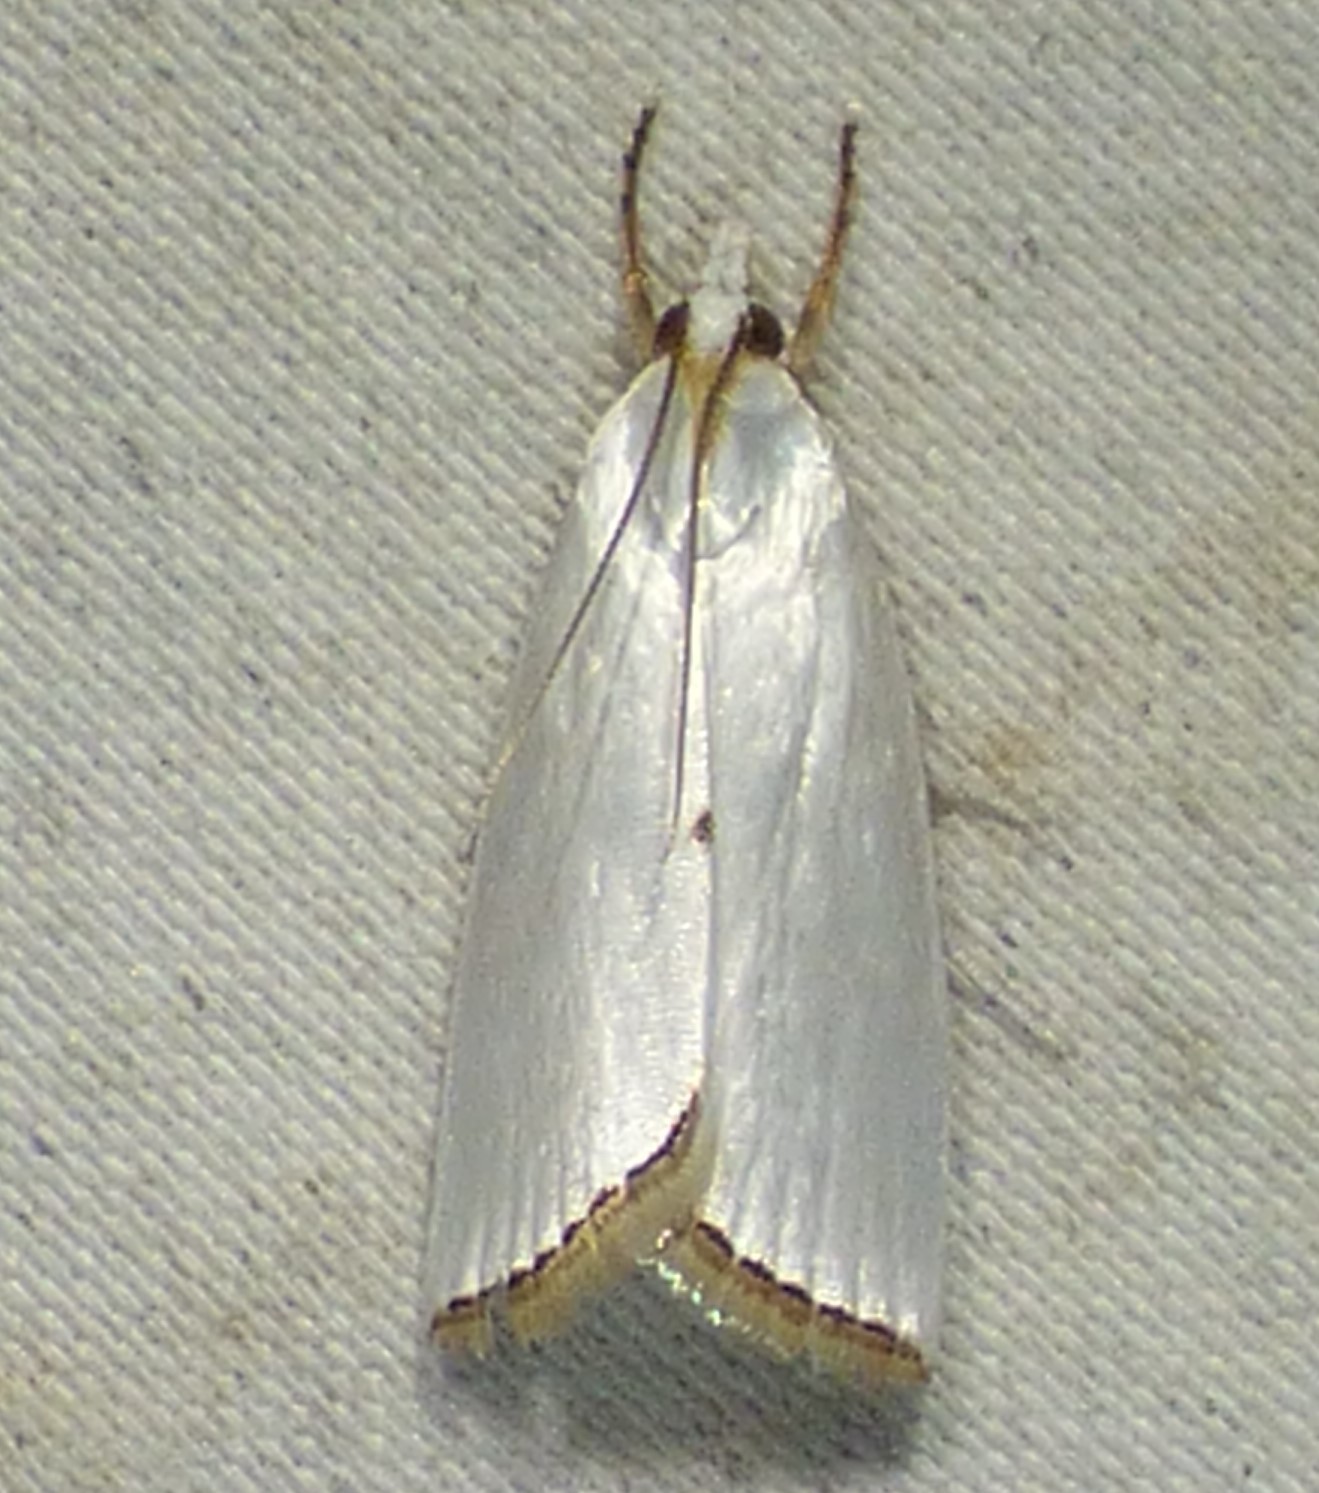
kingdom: Animalia
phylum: Arthropoda
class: Insecta
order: Lepidoptera
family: Crambidae
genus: Argyria
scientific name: Argyria nivalis
